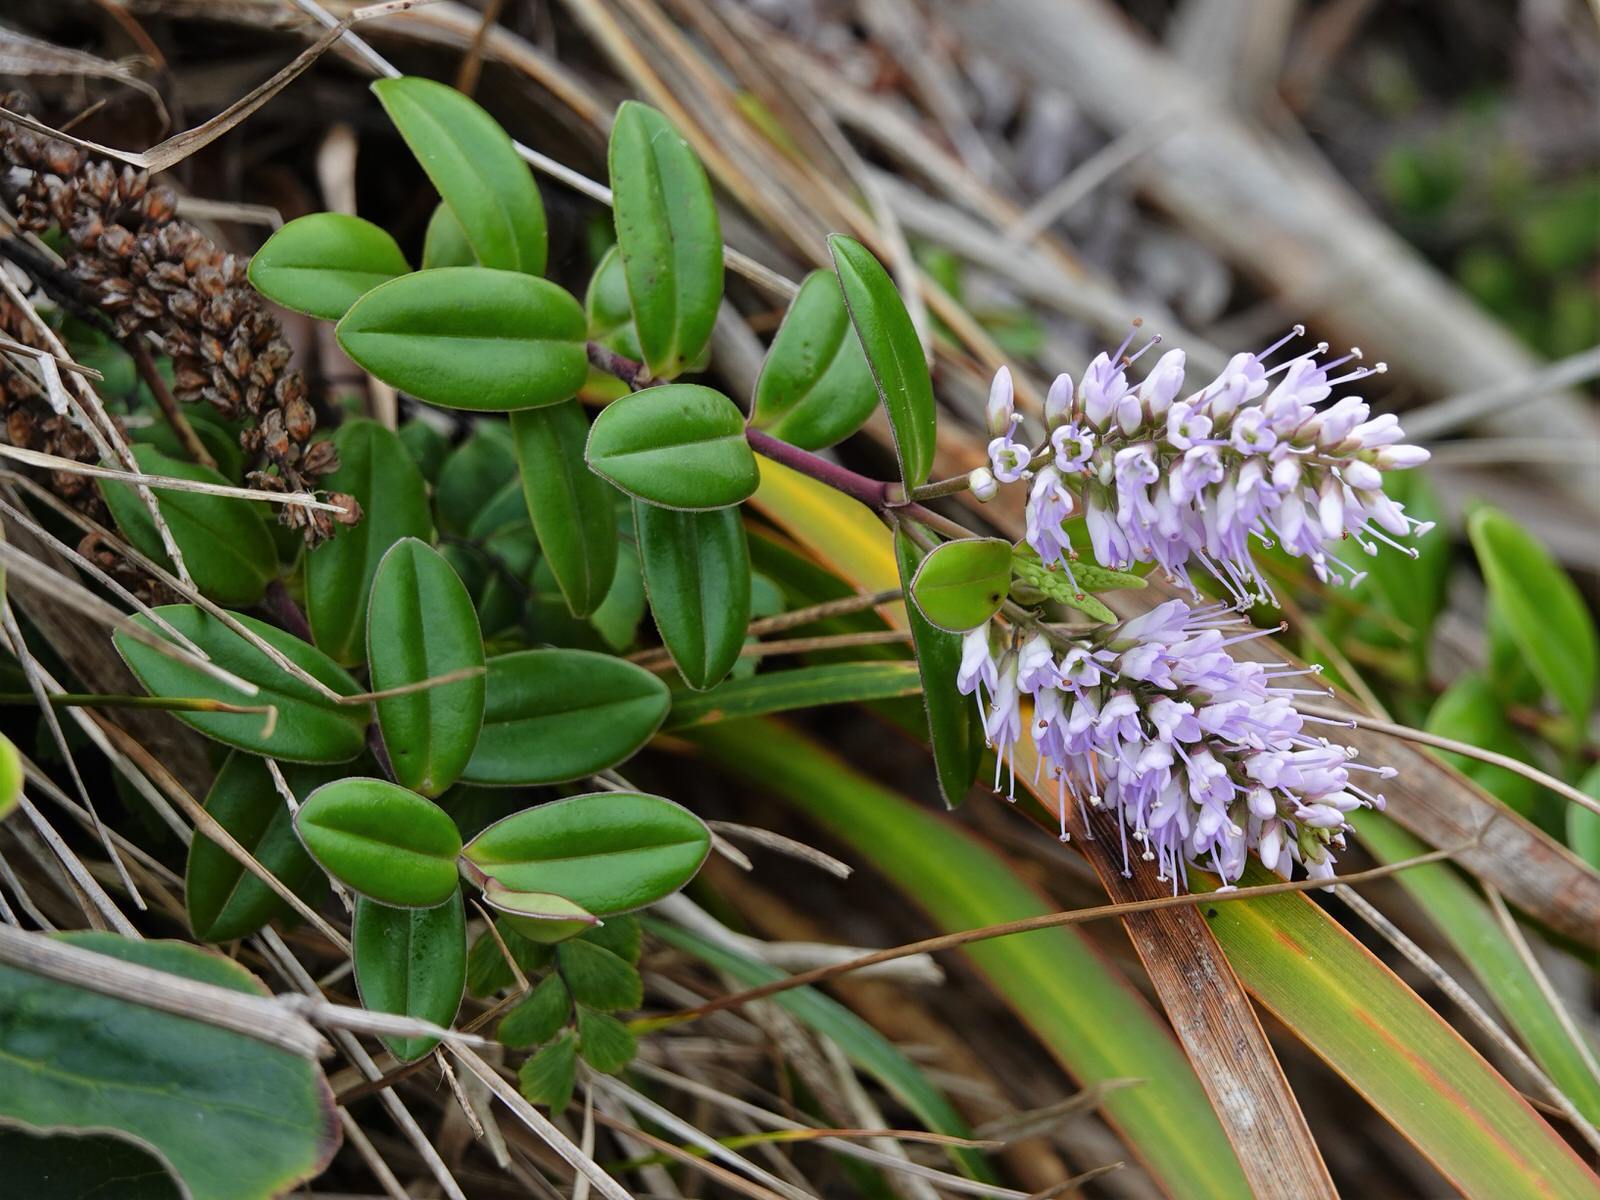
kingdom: Plantae
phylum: Tracheophyta
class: Magnoliopsida
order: Lamiales
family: Plantaginaceae
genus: Veronica
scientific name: Veronica obtusata
